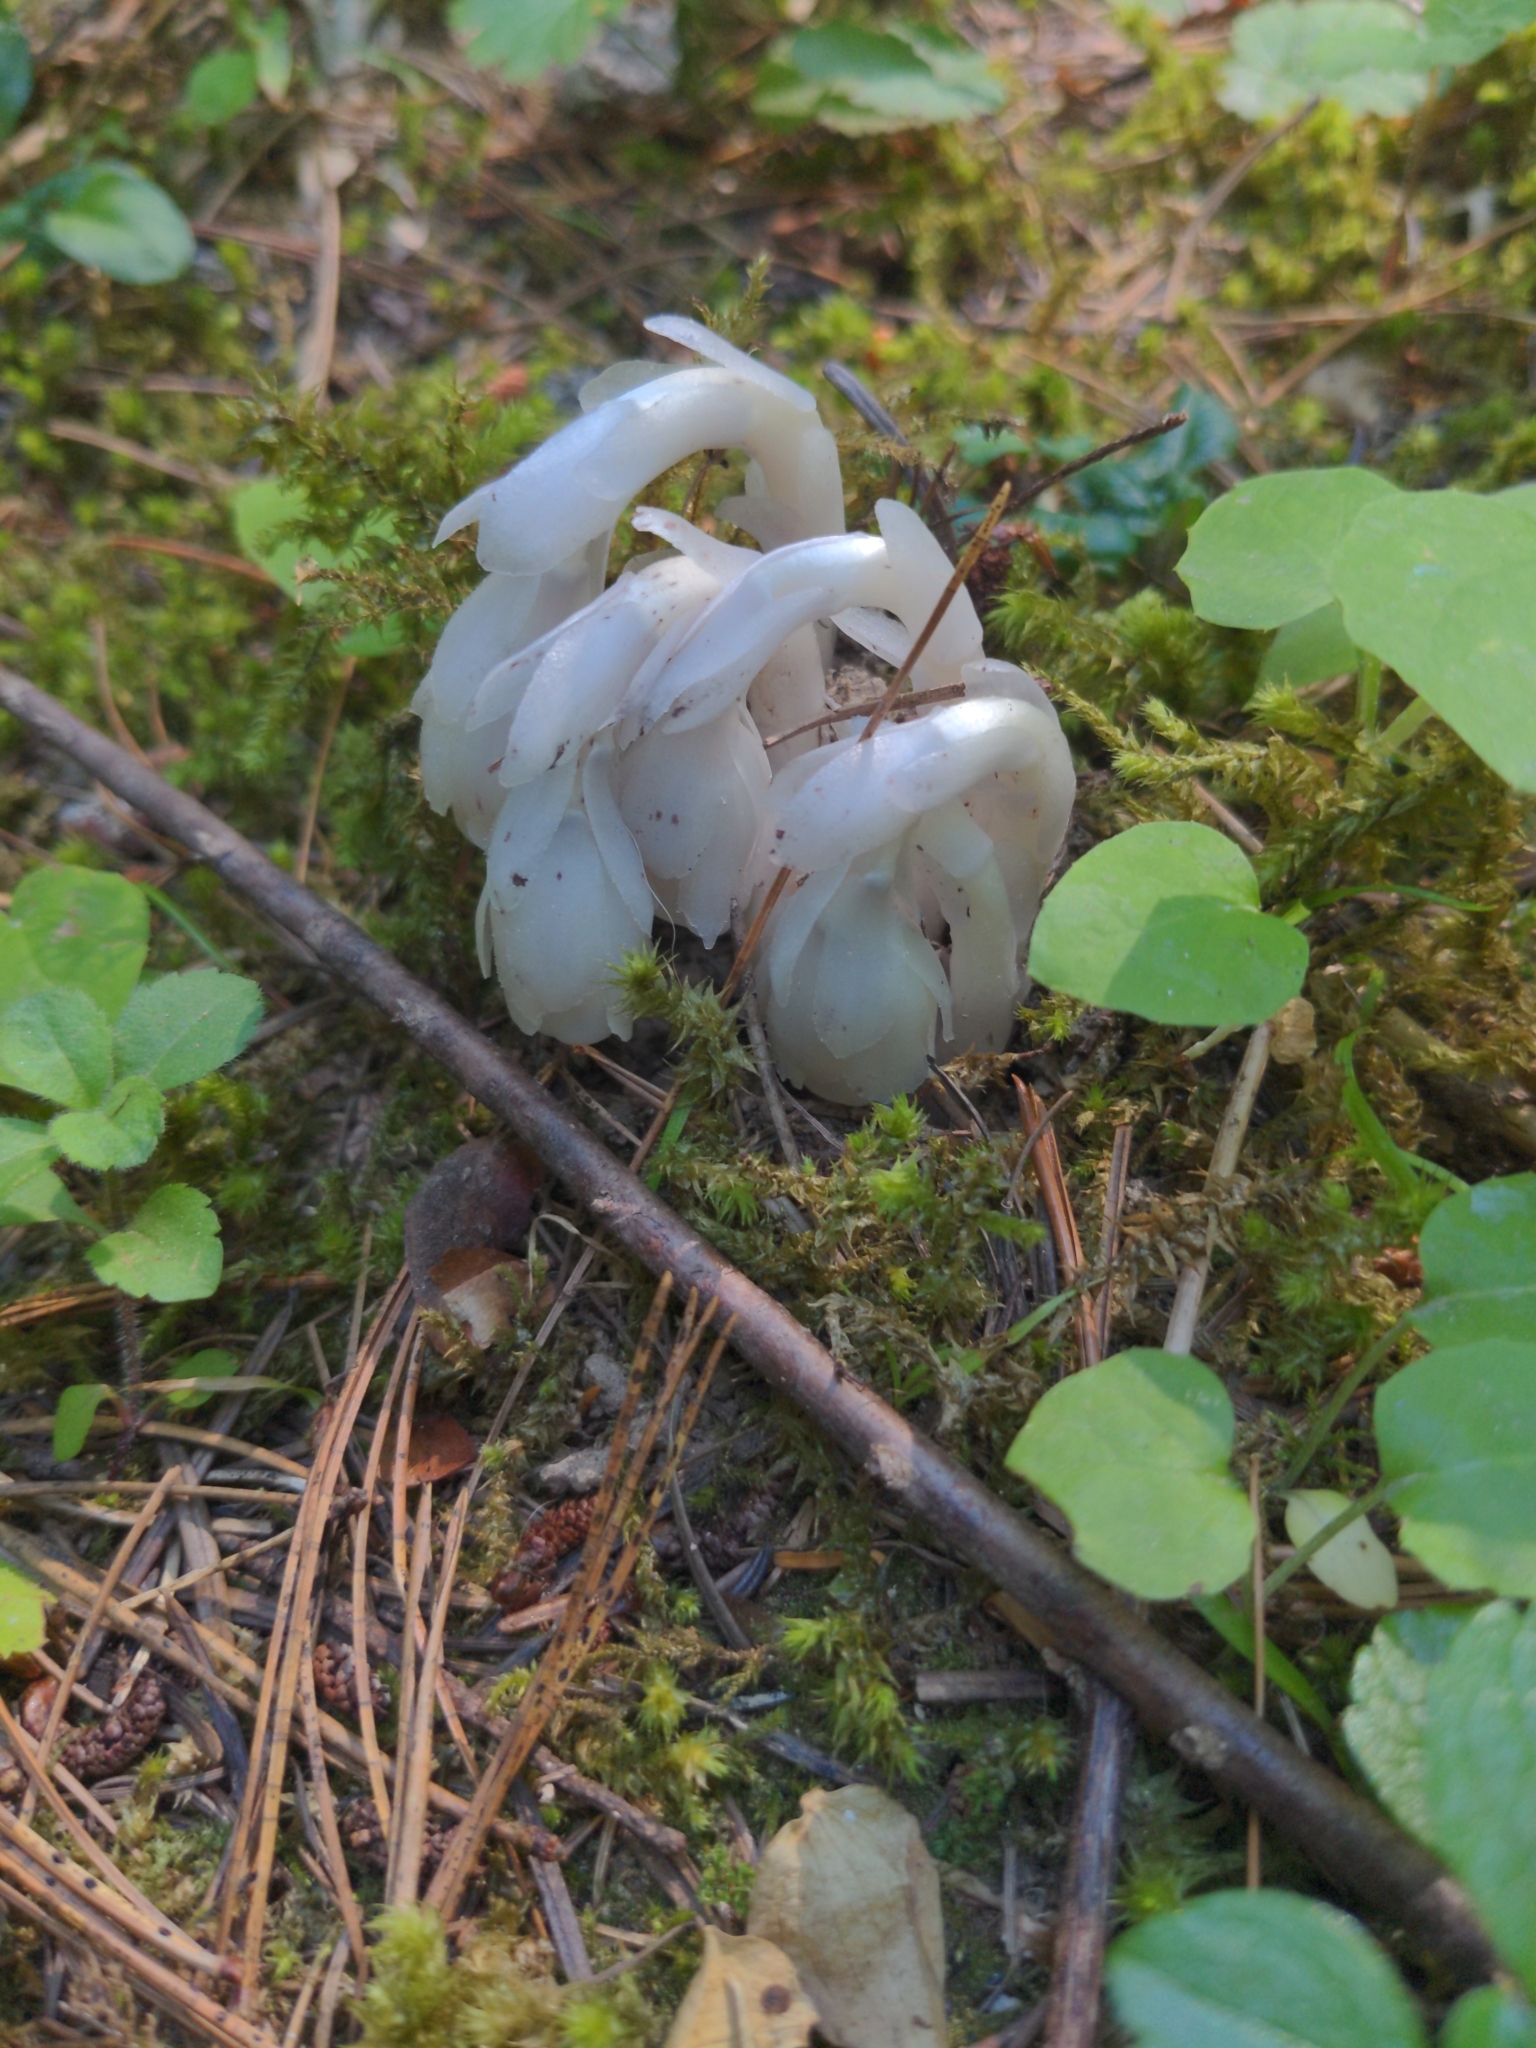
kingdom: Plantae
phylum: Tracheophyta
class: Magnoliopsida
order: Ericales
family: Ericaceae
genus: Monotropa
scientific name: Monotropa uniflora
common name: Convulsion root
